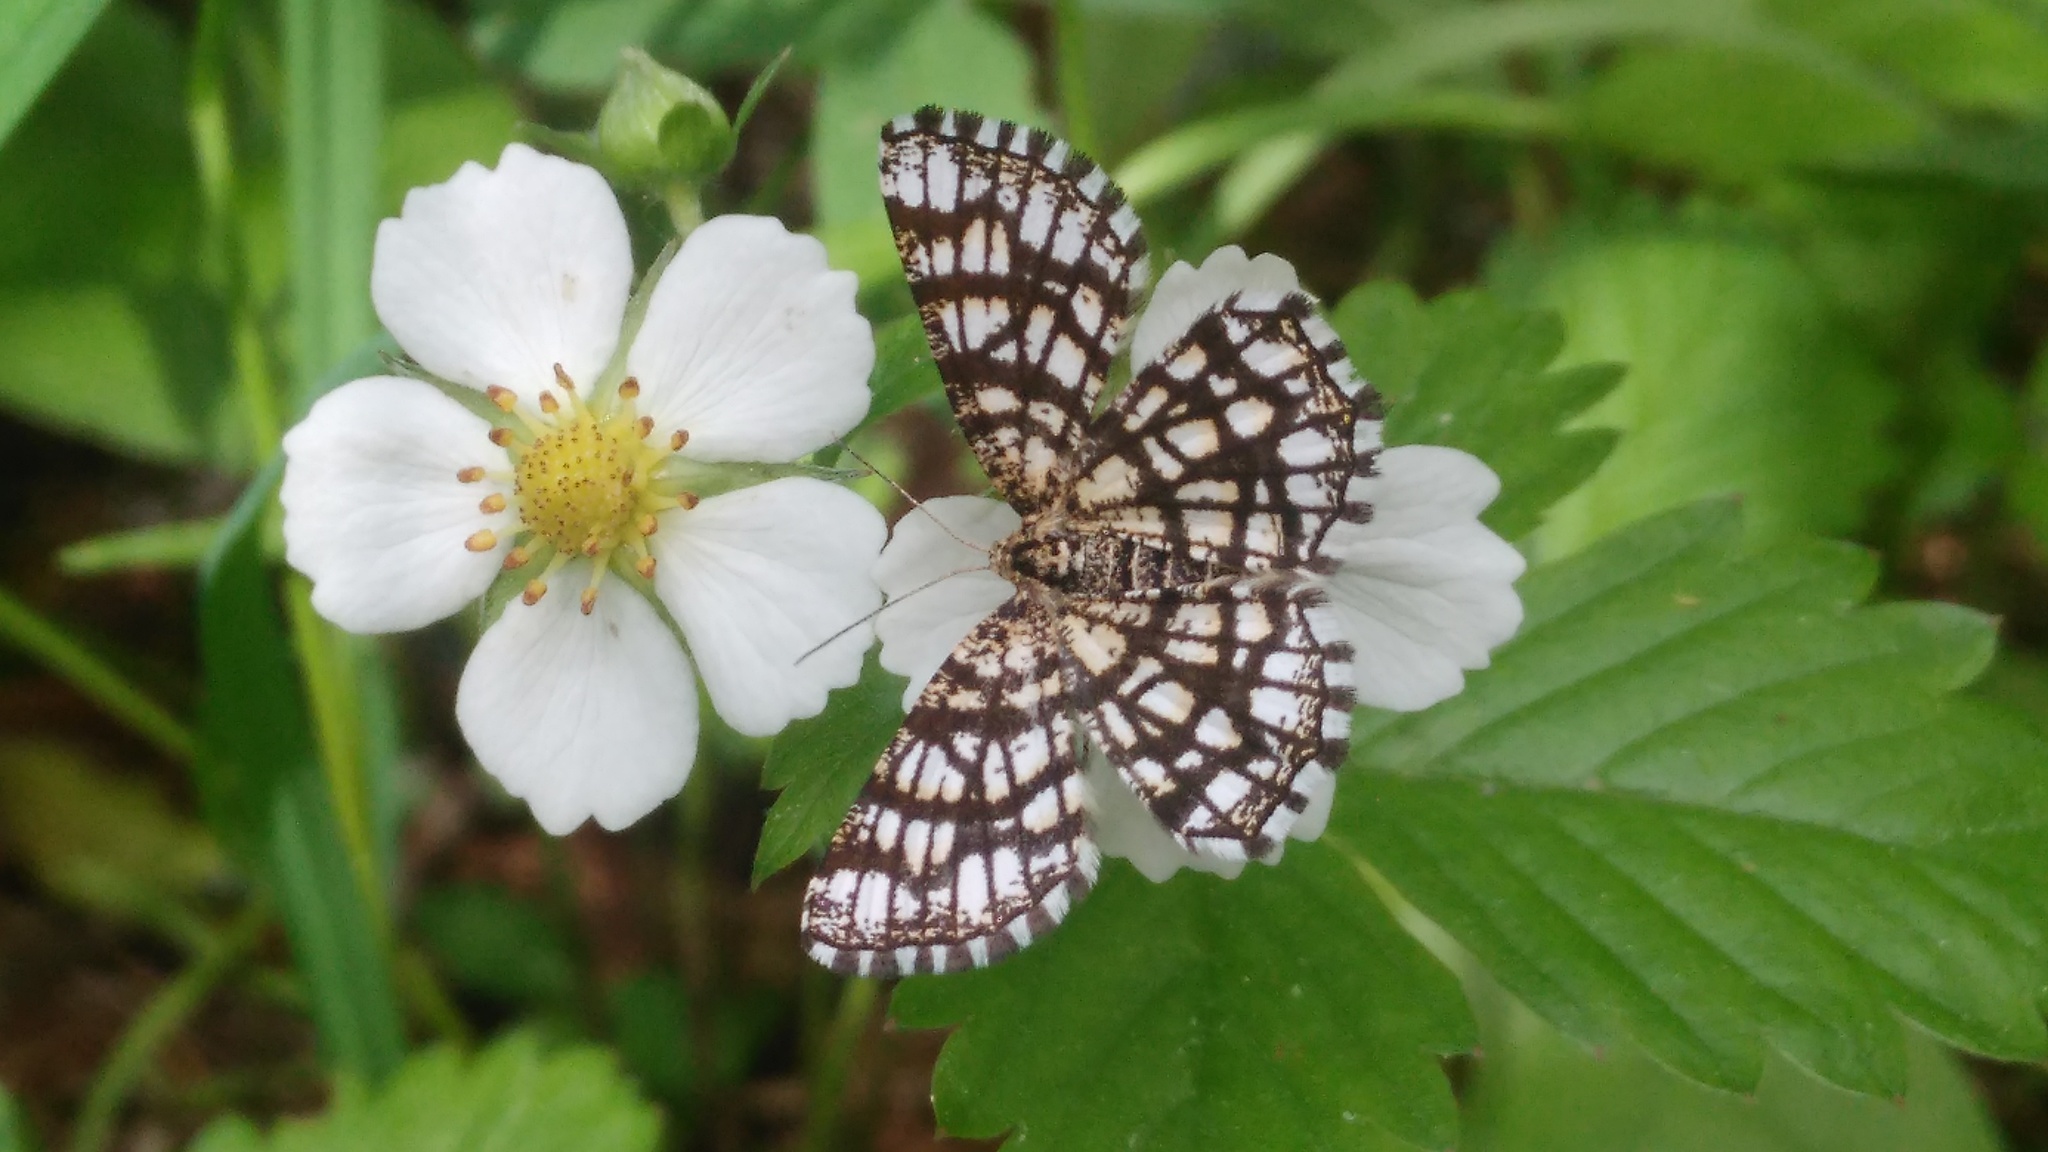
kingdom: Animalia
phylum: Arthropoda
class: Insecta
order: Lepidoptera
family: Geometridae
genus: Chiasmia
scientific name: Chiasmia clathrata
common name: Latticed heath
